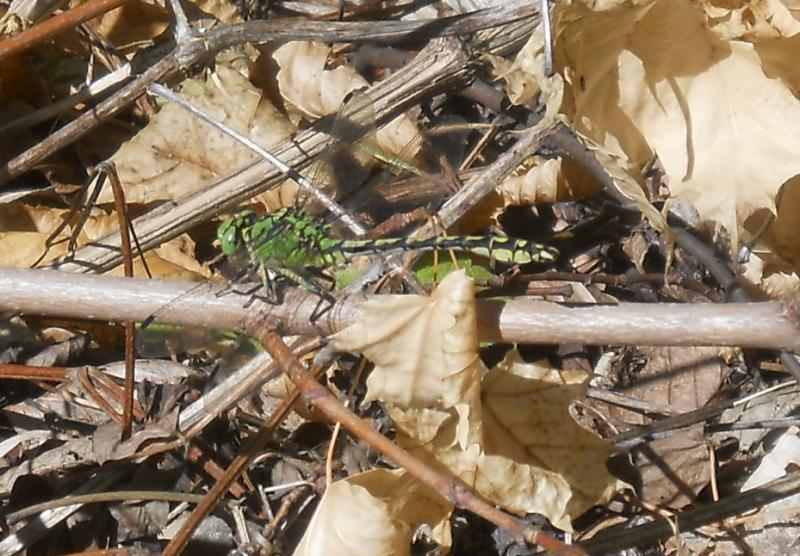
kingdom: Animalia
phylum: Arthropoda
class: Insecta
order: Odonata
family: Gomphidae
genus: Ophiogomphus
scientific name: Ophiogomphus cecilia
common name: Green snaketail
